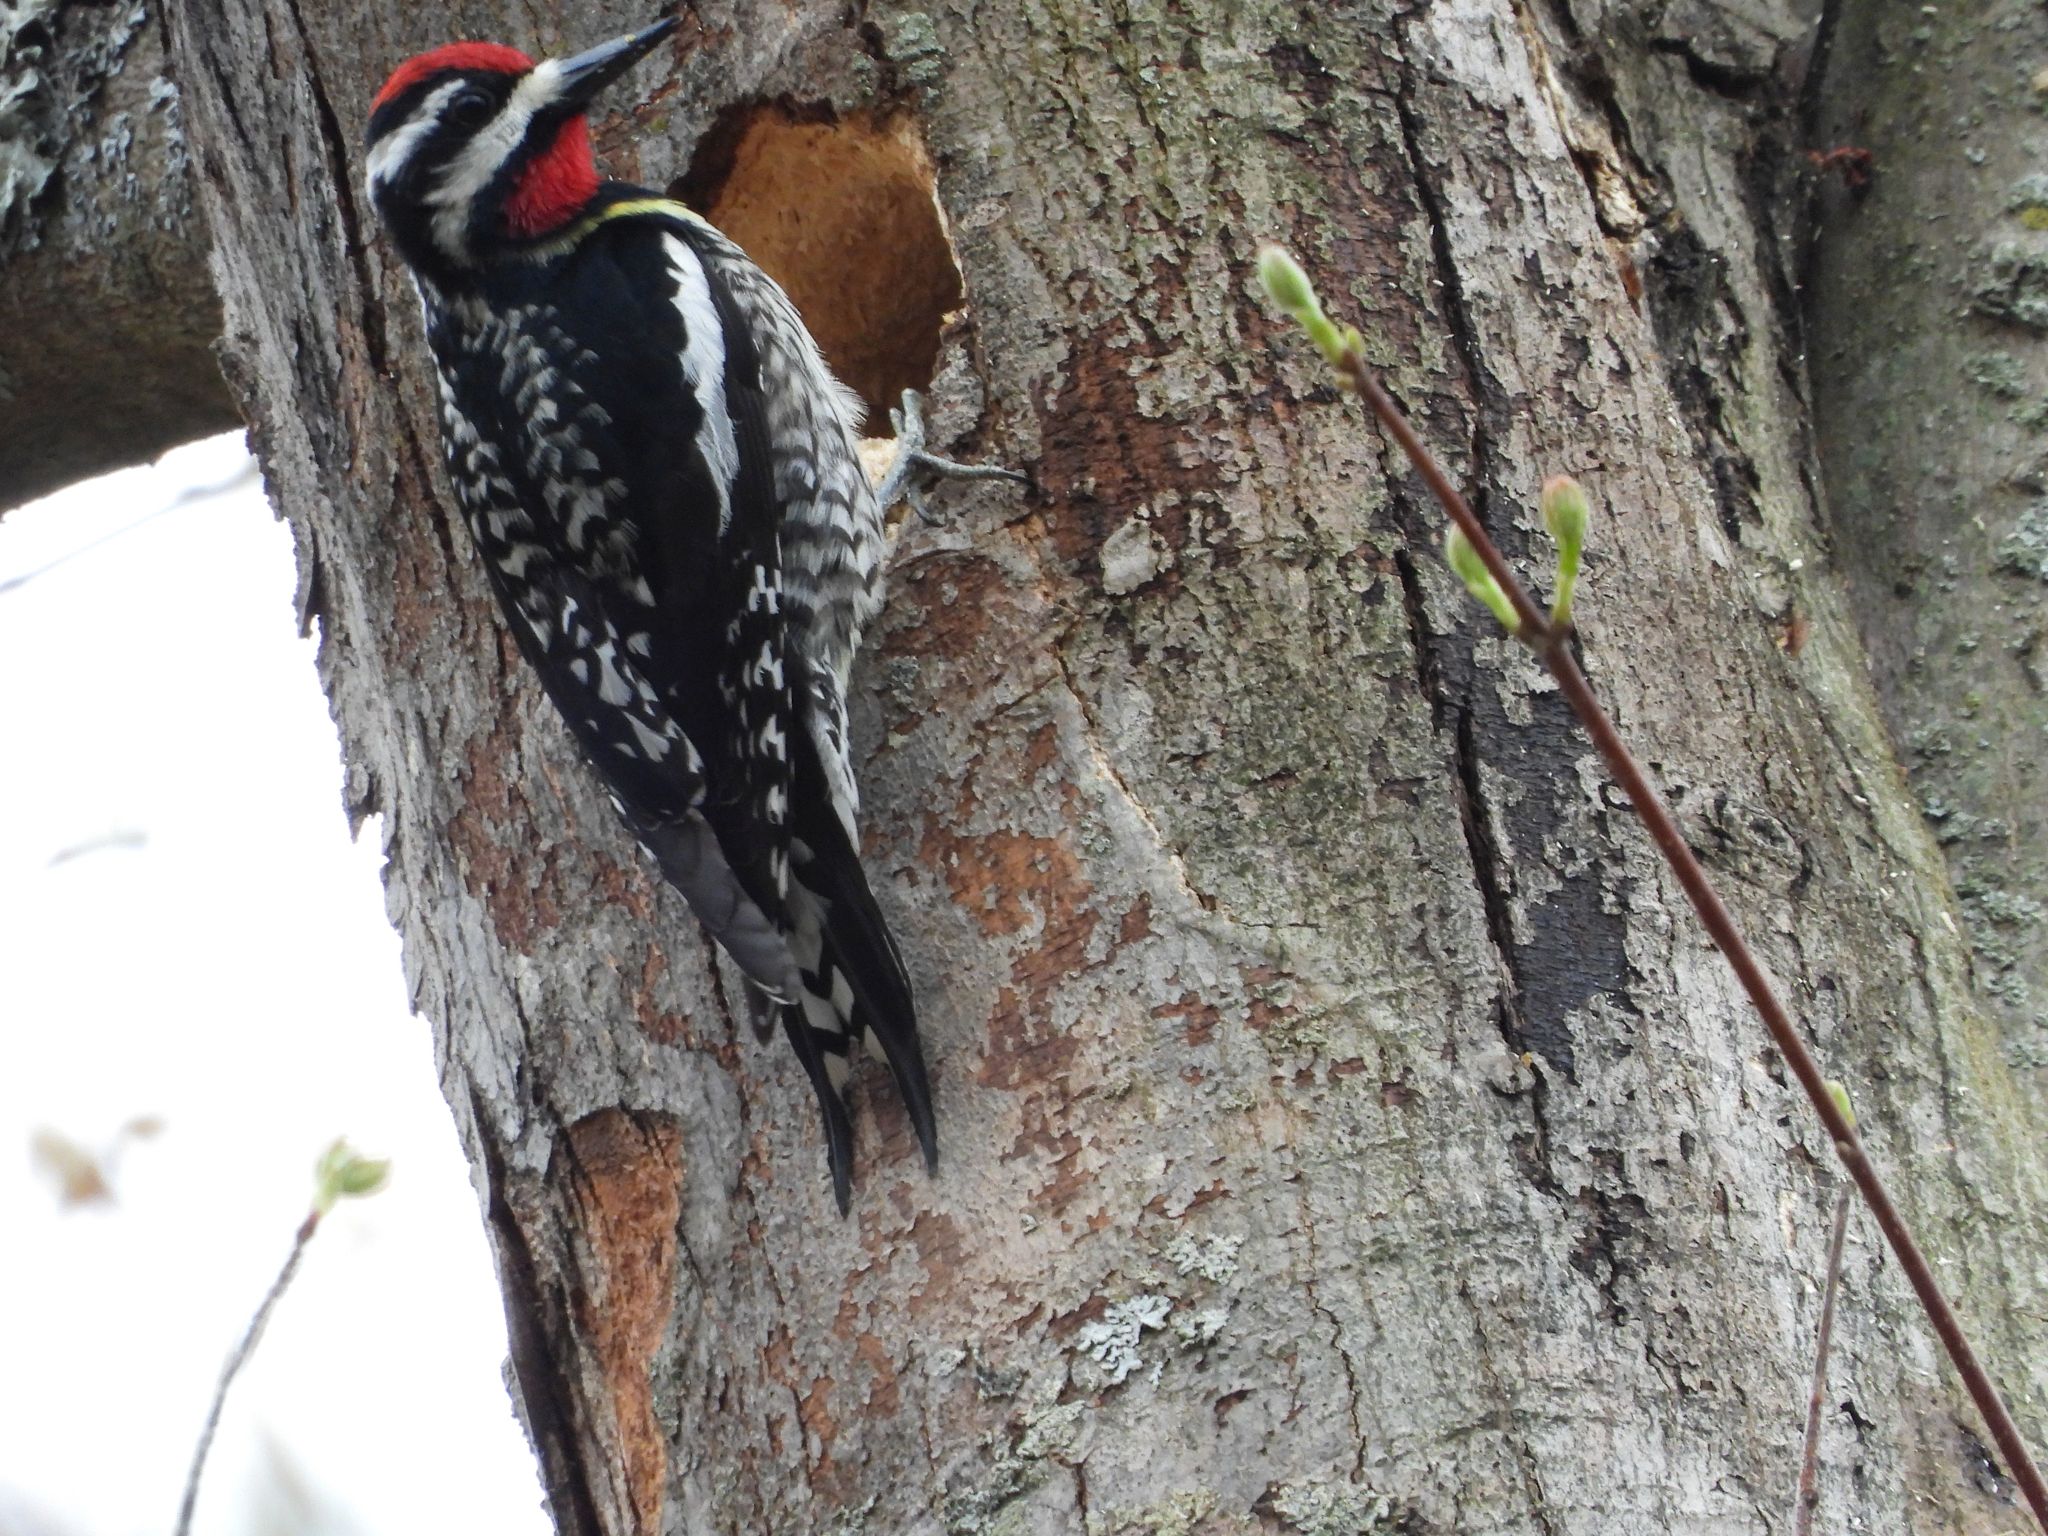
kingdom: Animalia
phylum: Chordata
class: Aves
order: Piciformes
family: Picidae
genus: Sphyrapicus
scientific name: Sphyrapicus varius
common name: Yellow-bellied sapsucker
